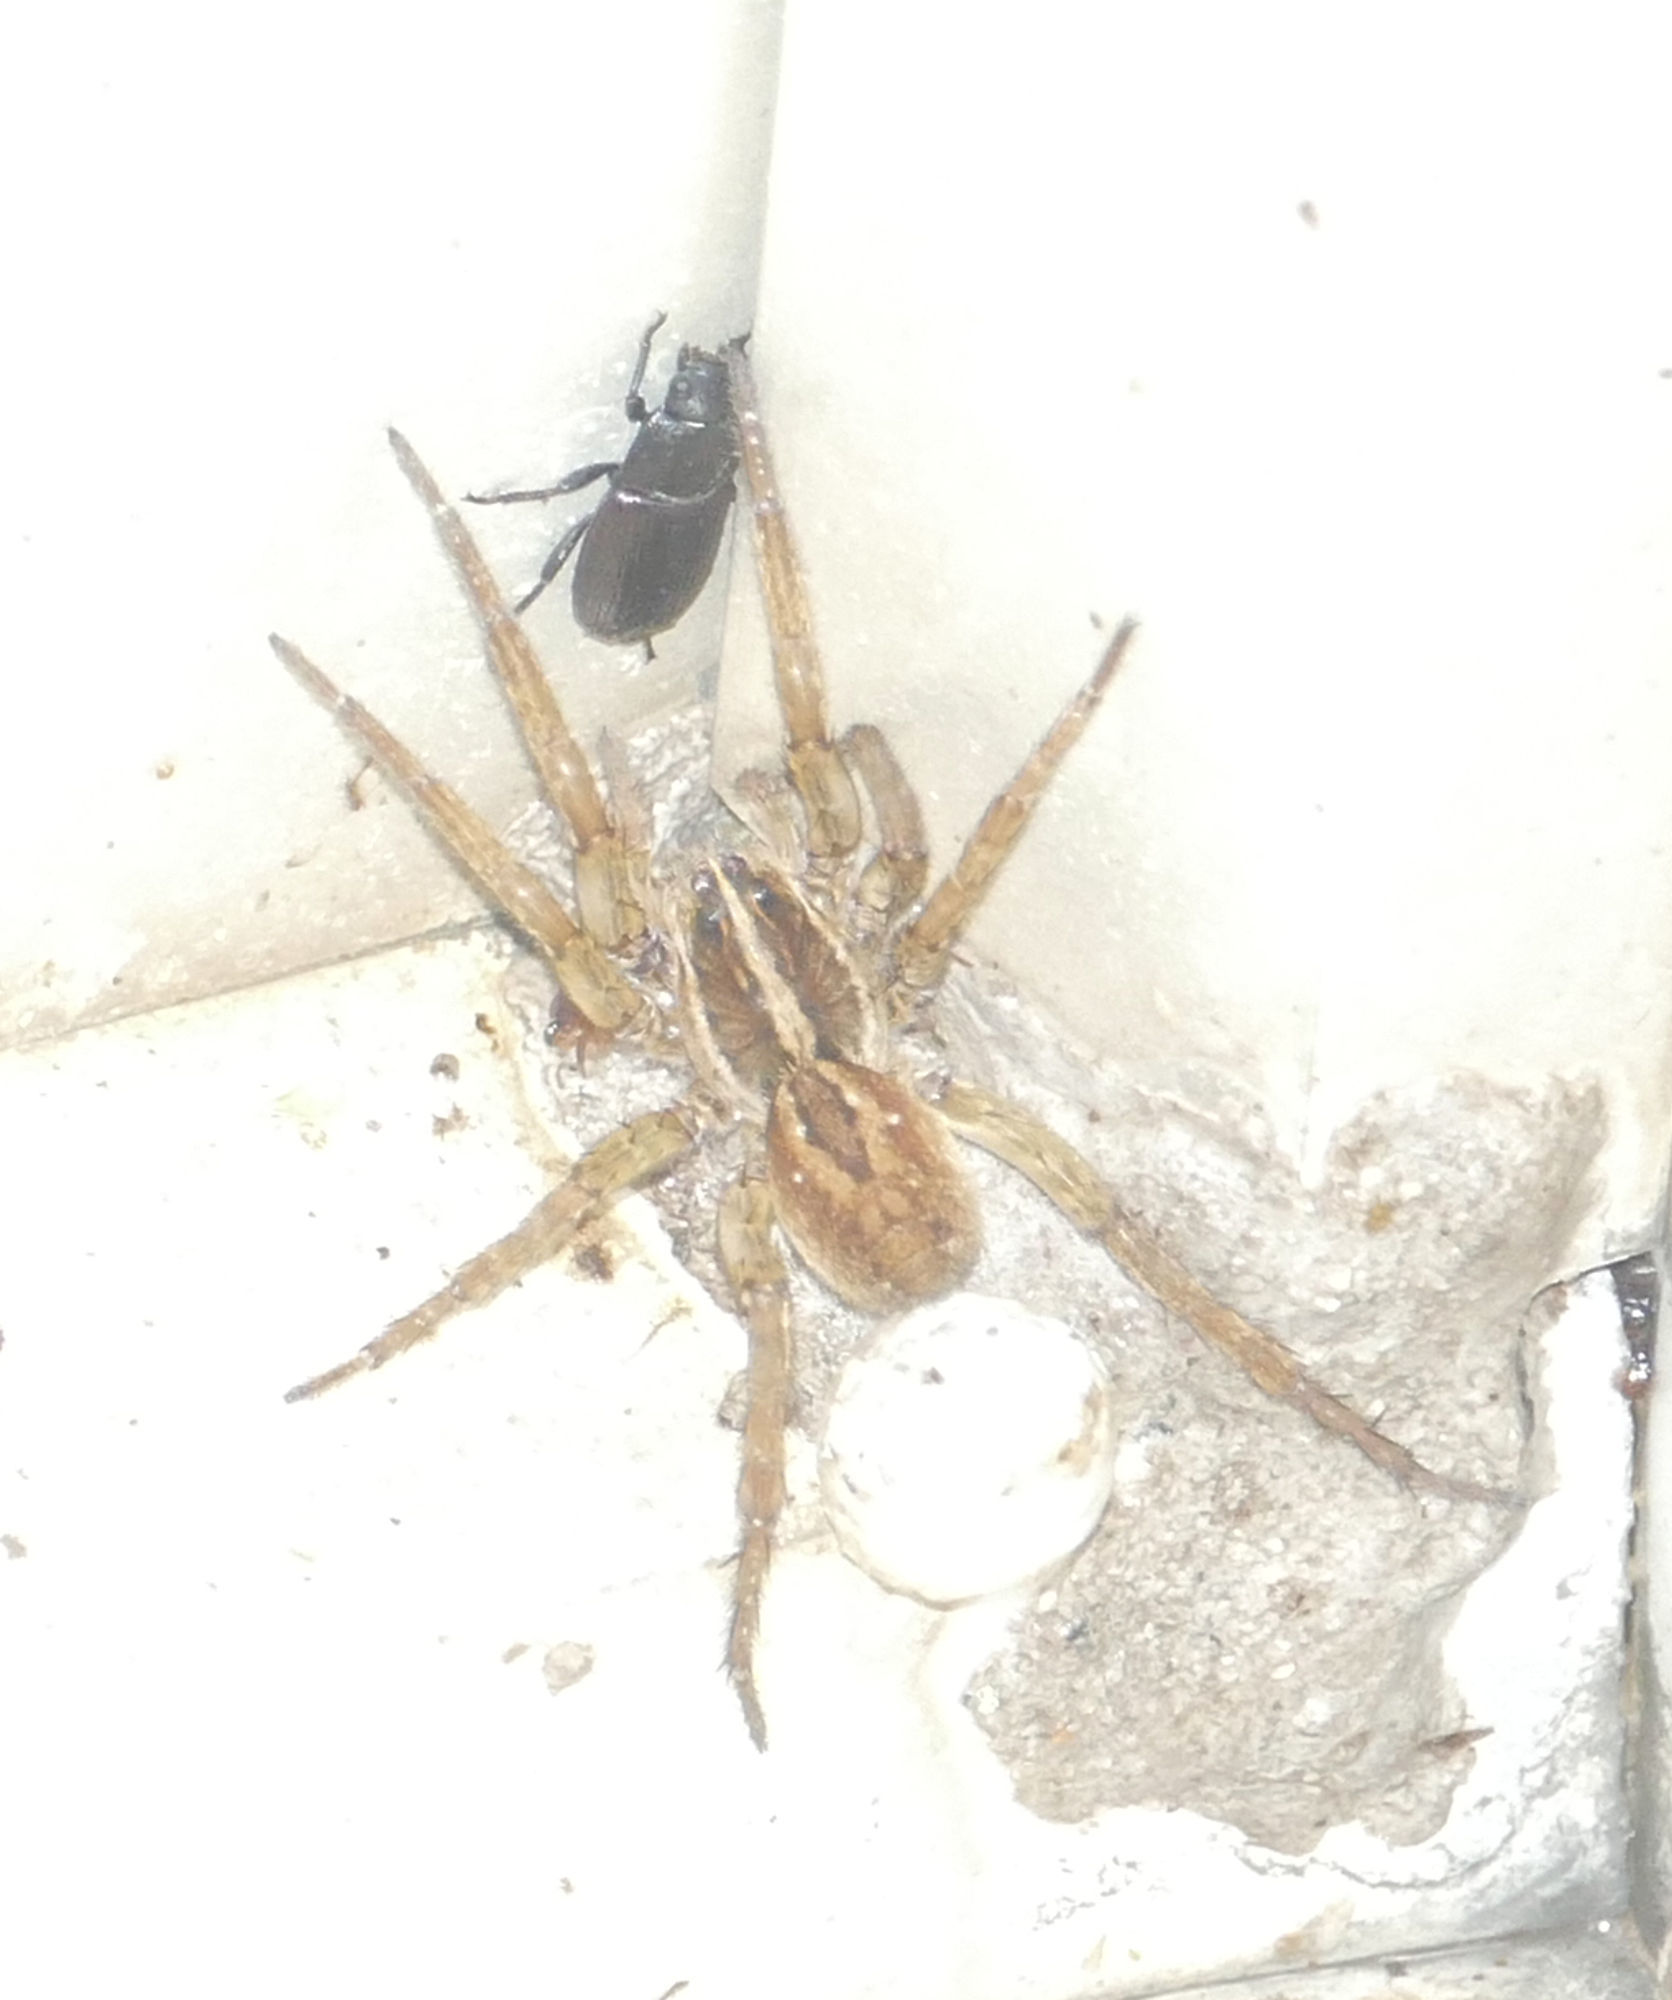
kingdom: Animalia
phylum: Arthropoda
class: Arachnida
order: Araneae
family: Lycosidae
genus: Tigrosa
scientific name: Tigrosa annexa
